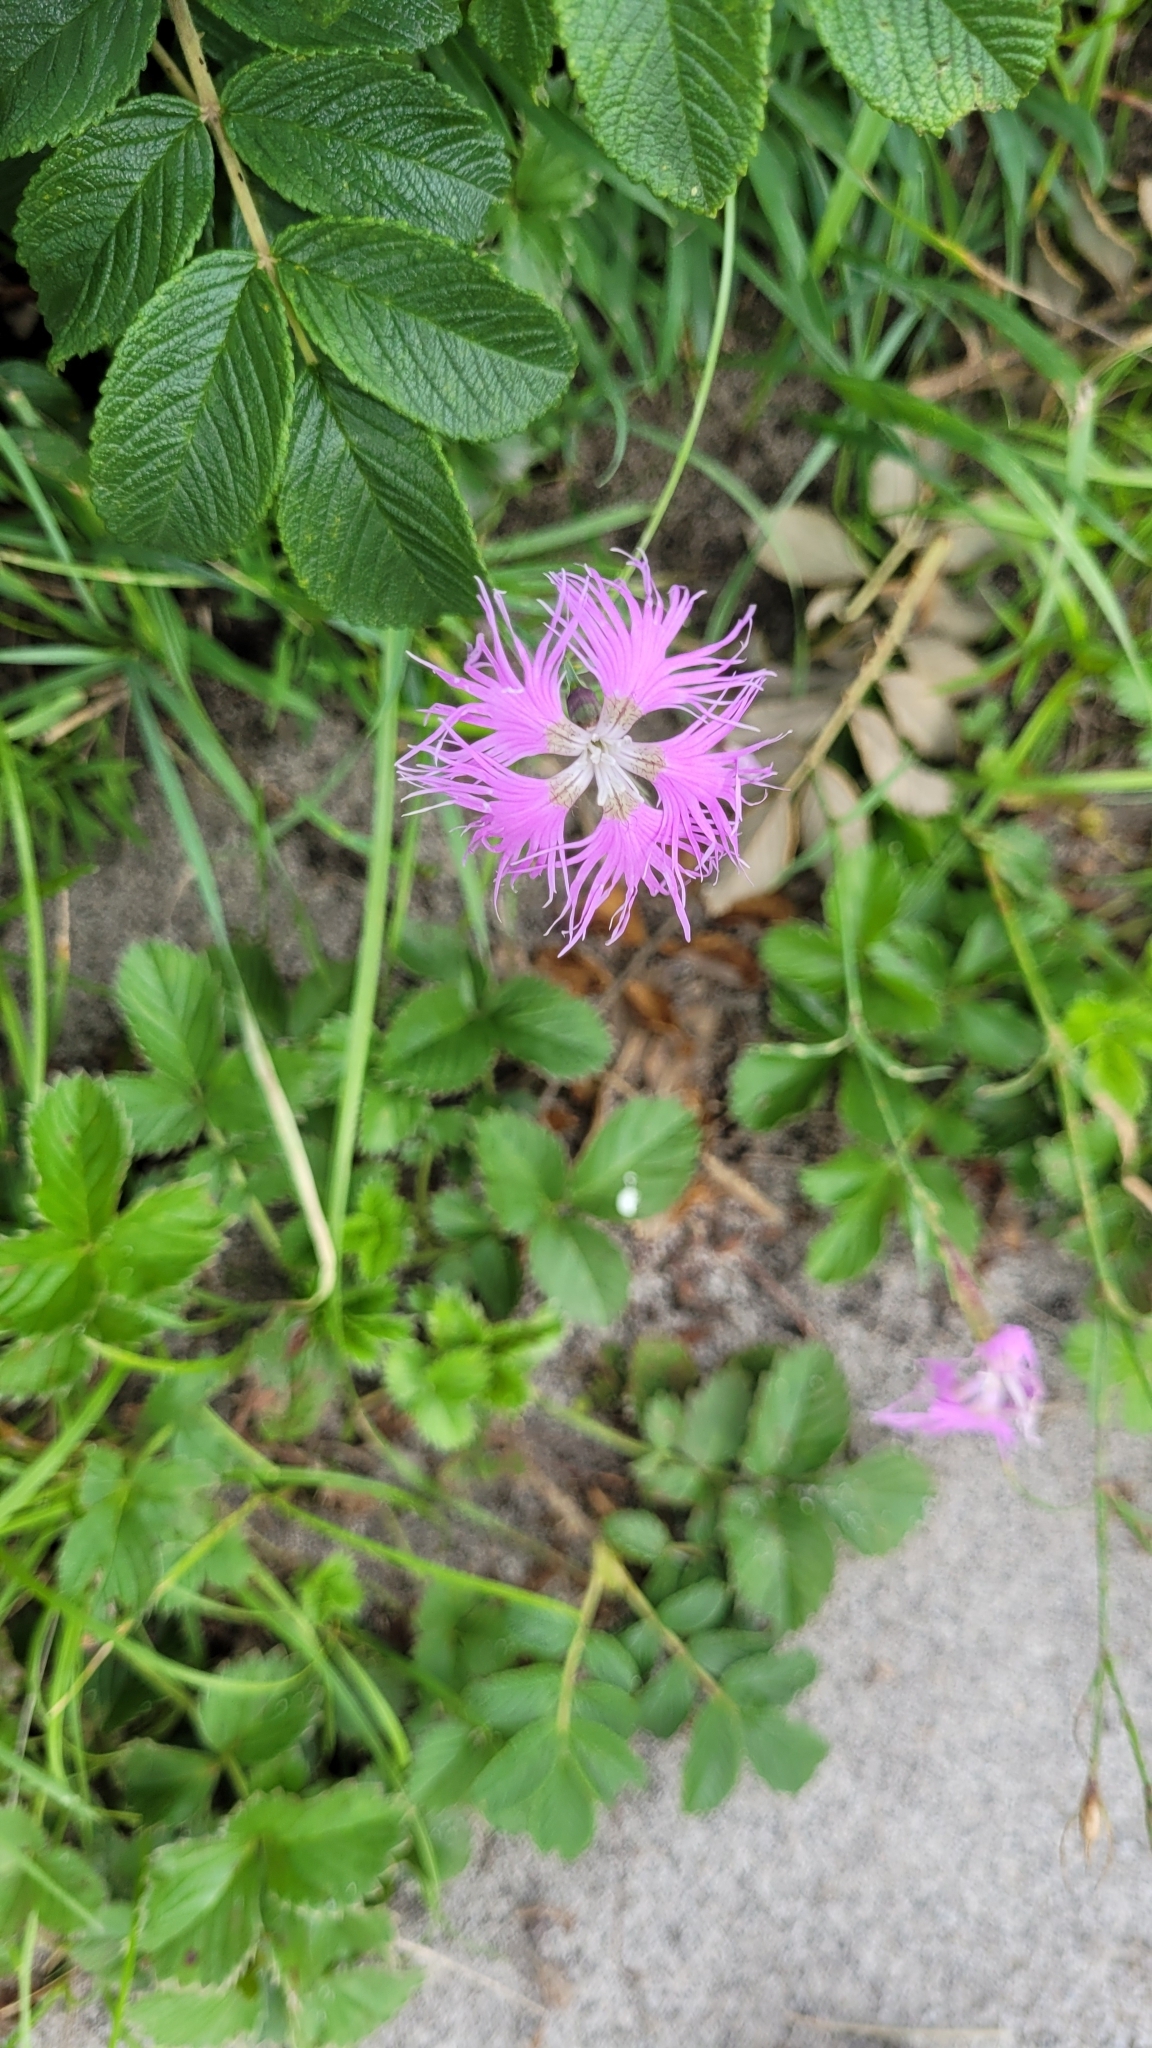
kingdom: Plantae
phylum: Tracheophyta
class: Magnoliopsida
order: Caryophyllales
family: Caryophyllaceae
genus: Dianthus
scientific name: Dianthus superbus
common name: Fringed pink
